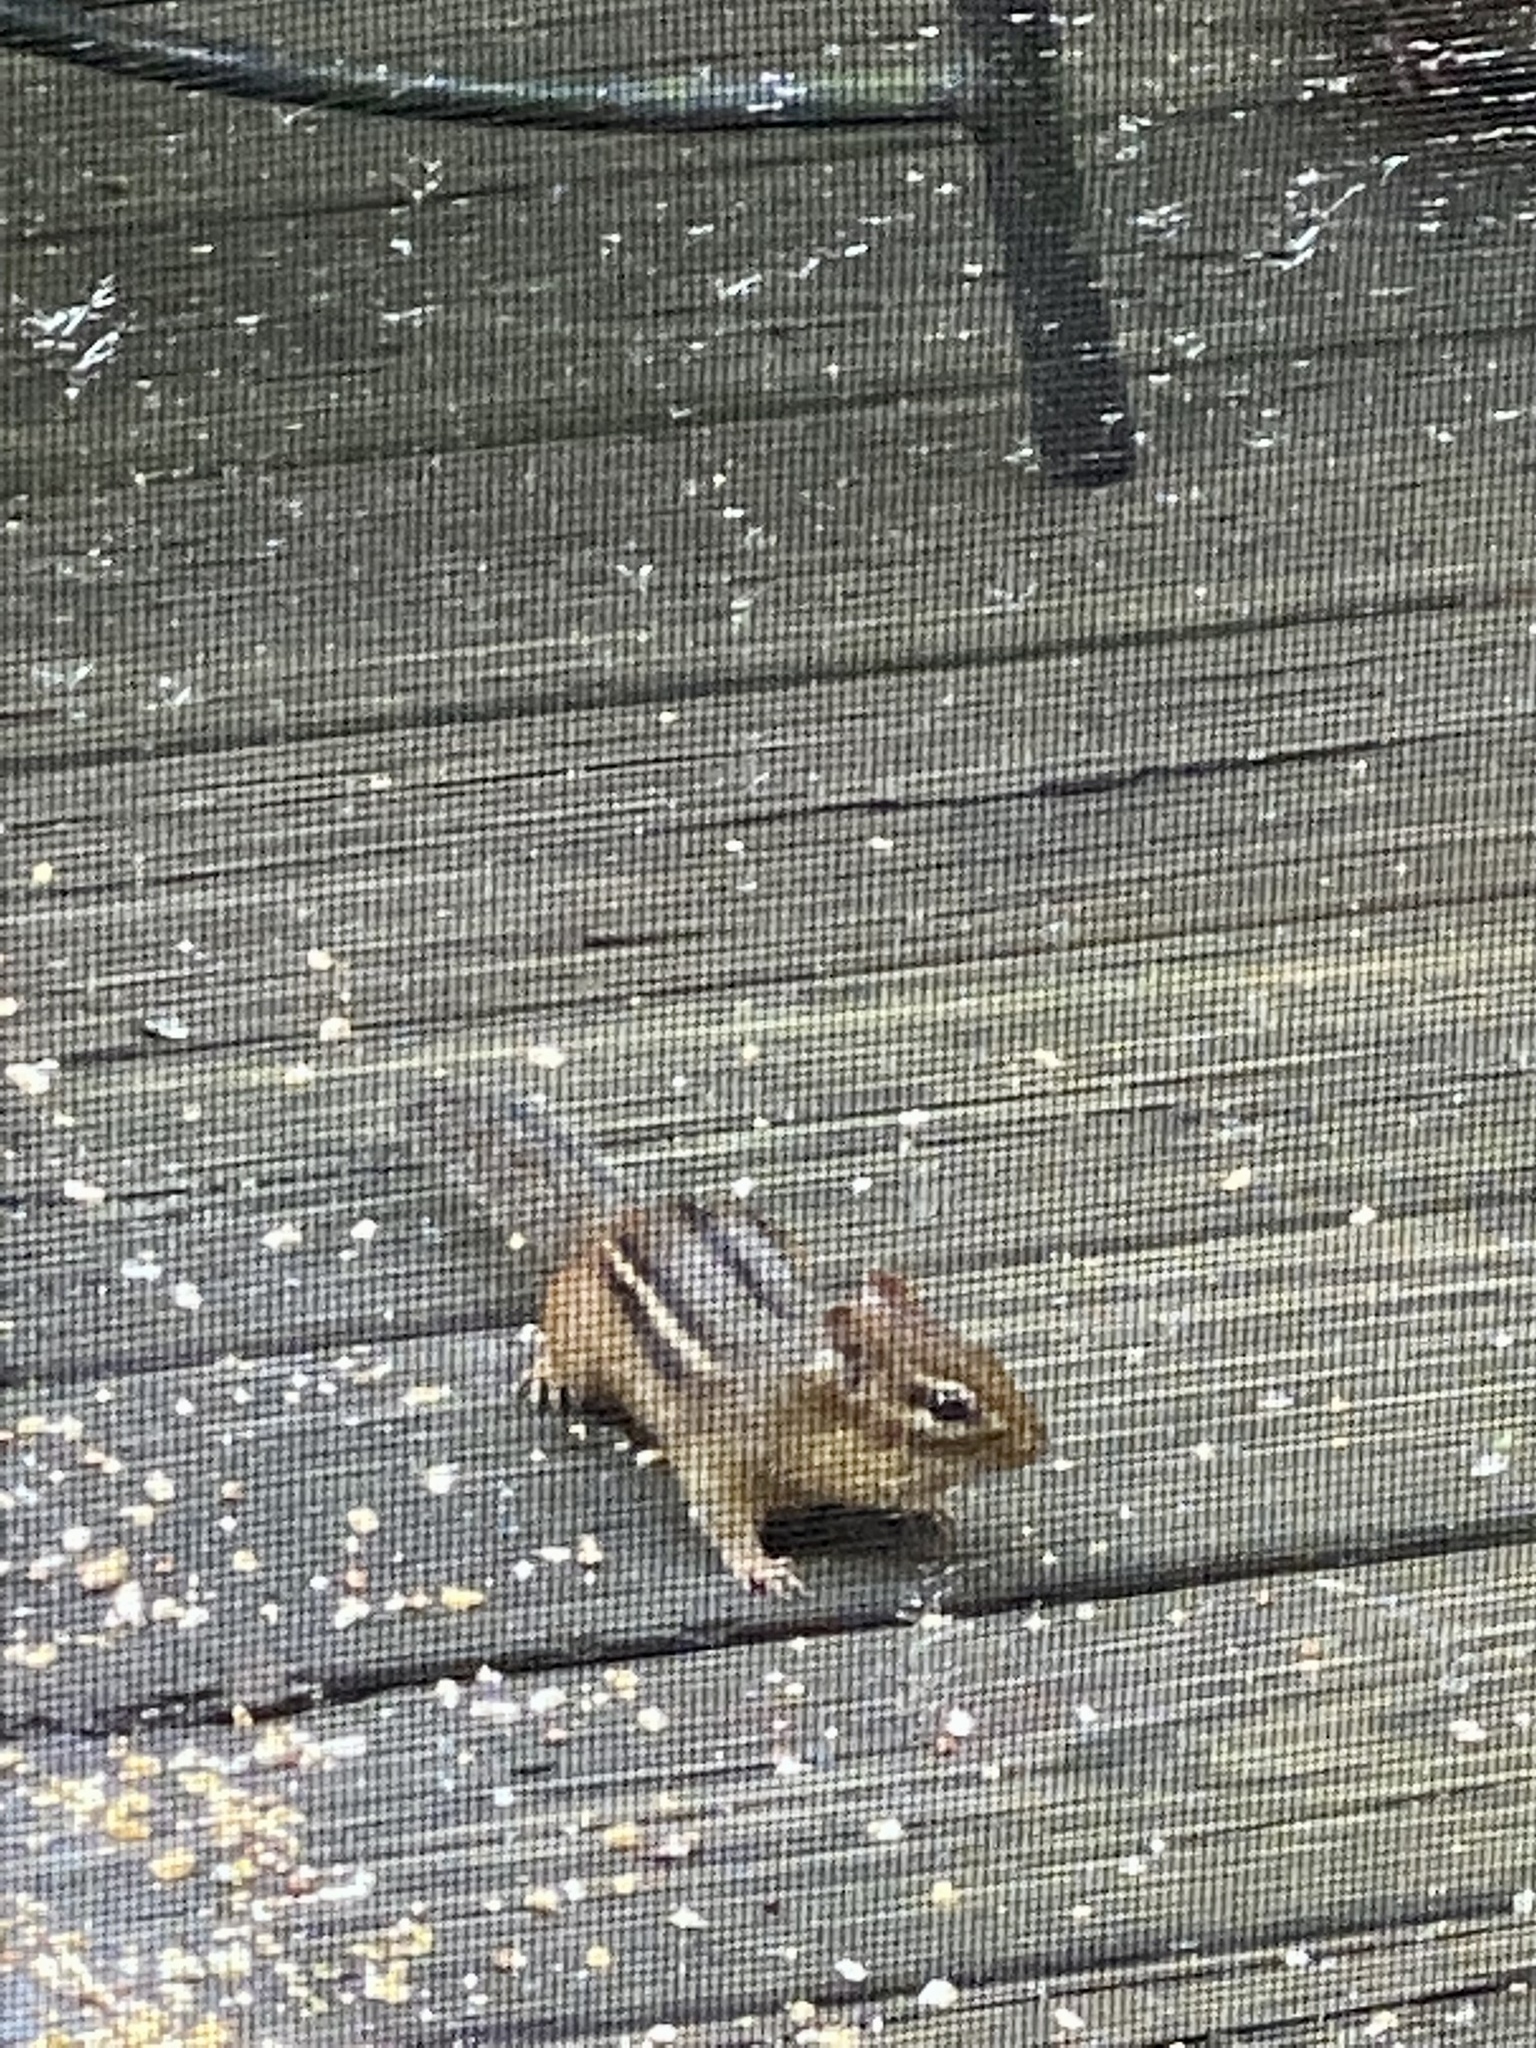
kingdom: Animalia
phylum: Chordata
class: Mammalia
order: Rodentia
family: Sciuridae
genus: Tamias
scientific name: Tamias striatus
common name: Eastern chipmunk
